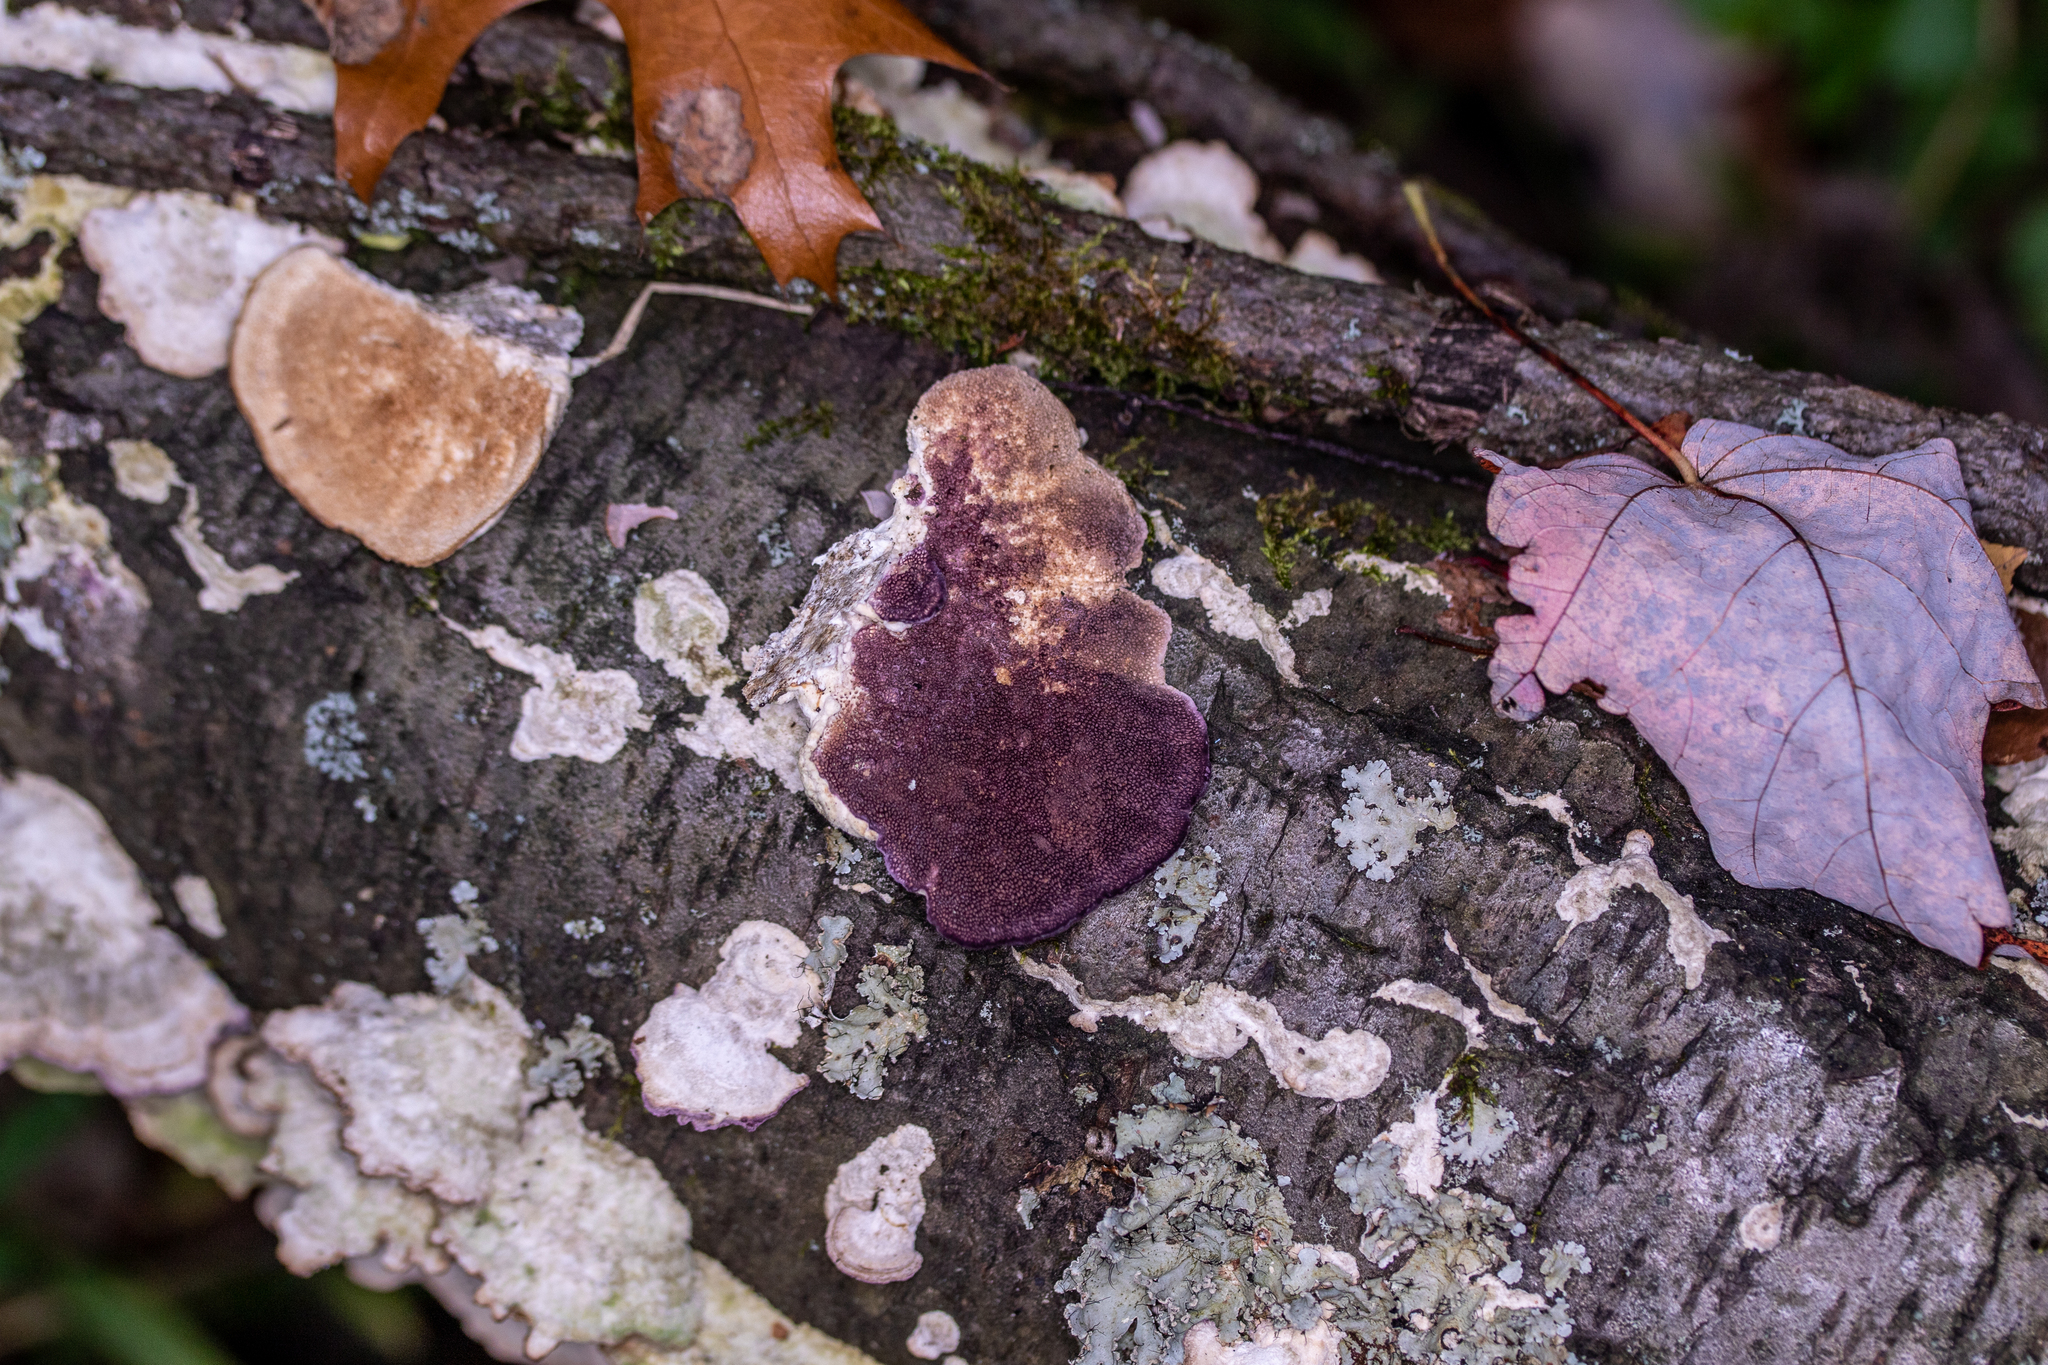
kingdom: Fungi
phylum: Basidiomycota
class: Agaricomycetes
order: Hymenochaetales
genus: Trichaptum
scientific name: Trichaptum biforme
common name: Violet-toothed polypore
